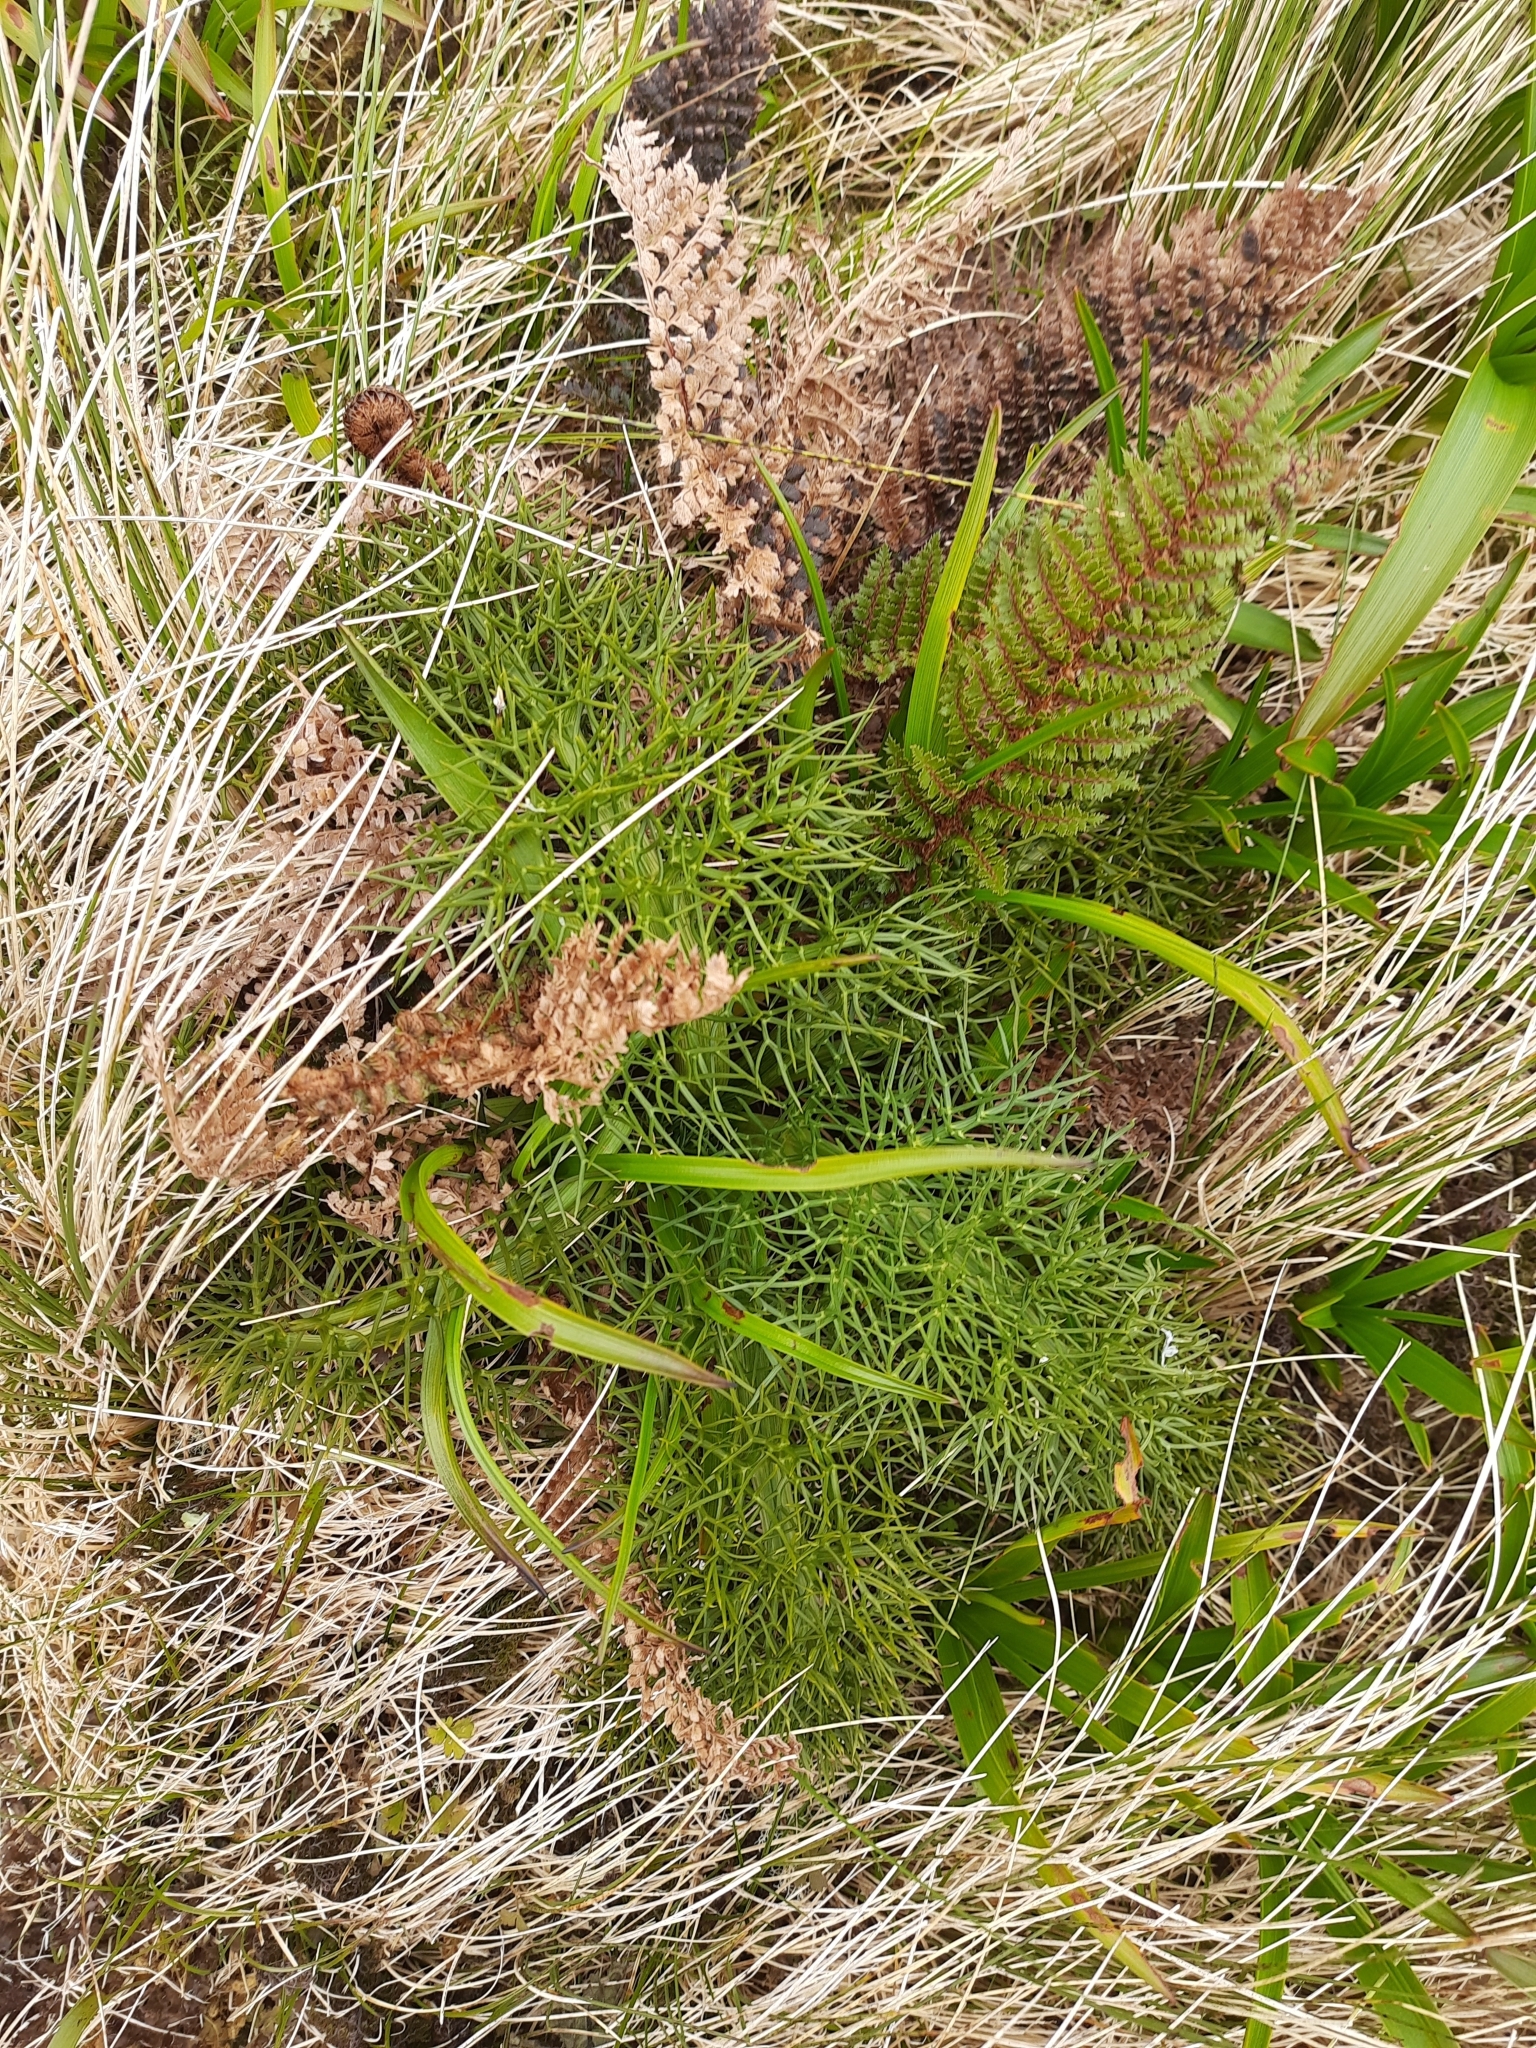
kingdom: Plantae
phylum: Tracheophyta
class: Magnoliopsida
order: Apiales
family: Apiaceae
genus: Anisotome
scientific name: Anisotome antipoda
